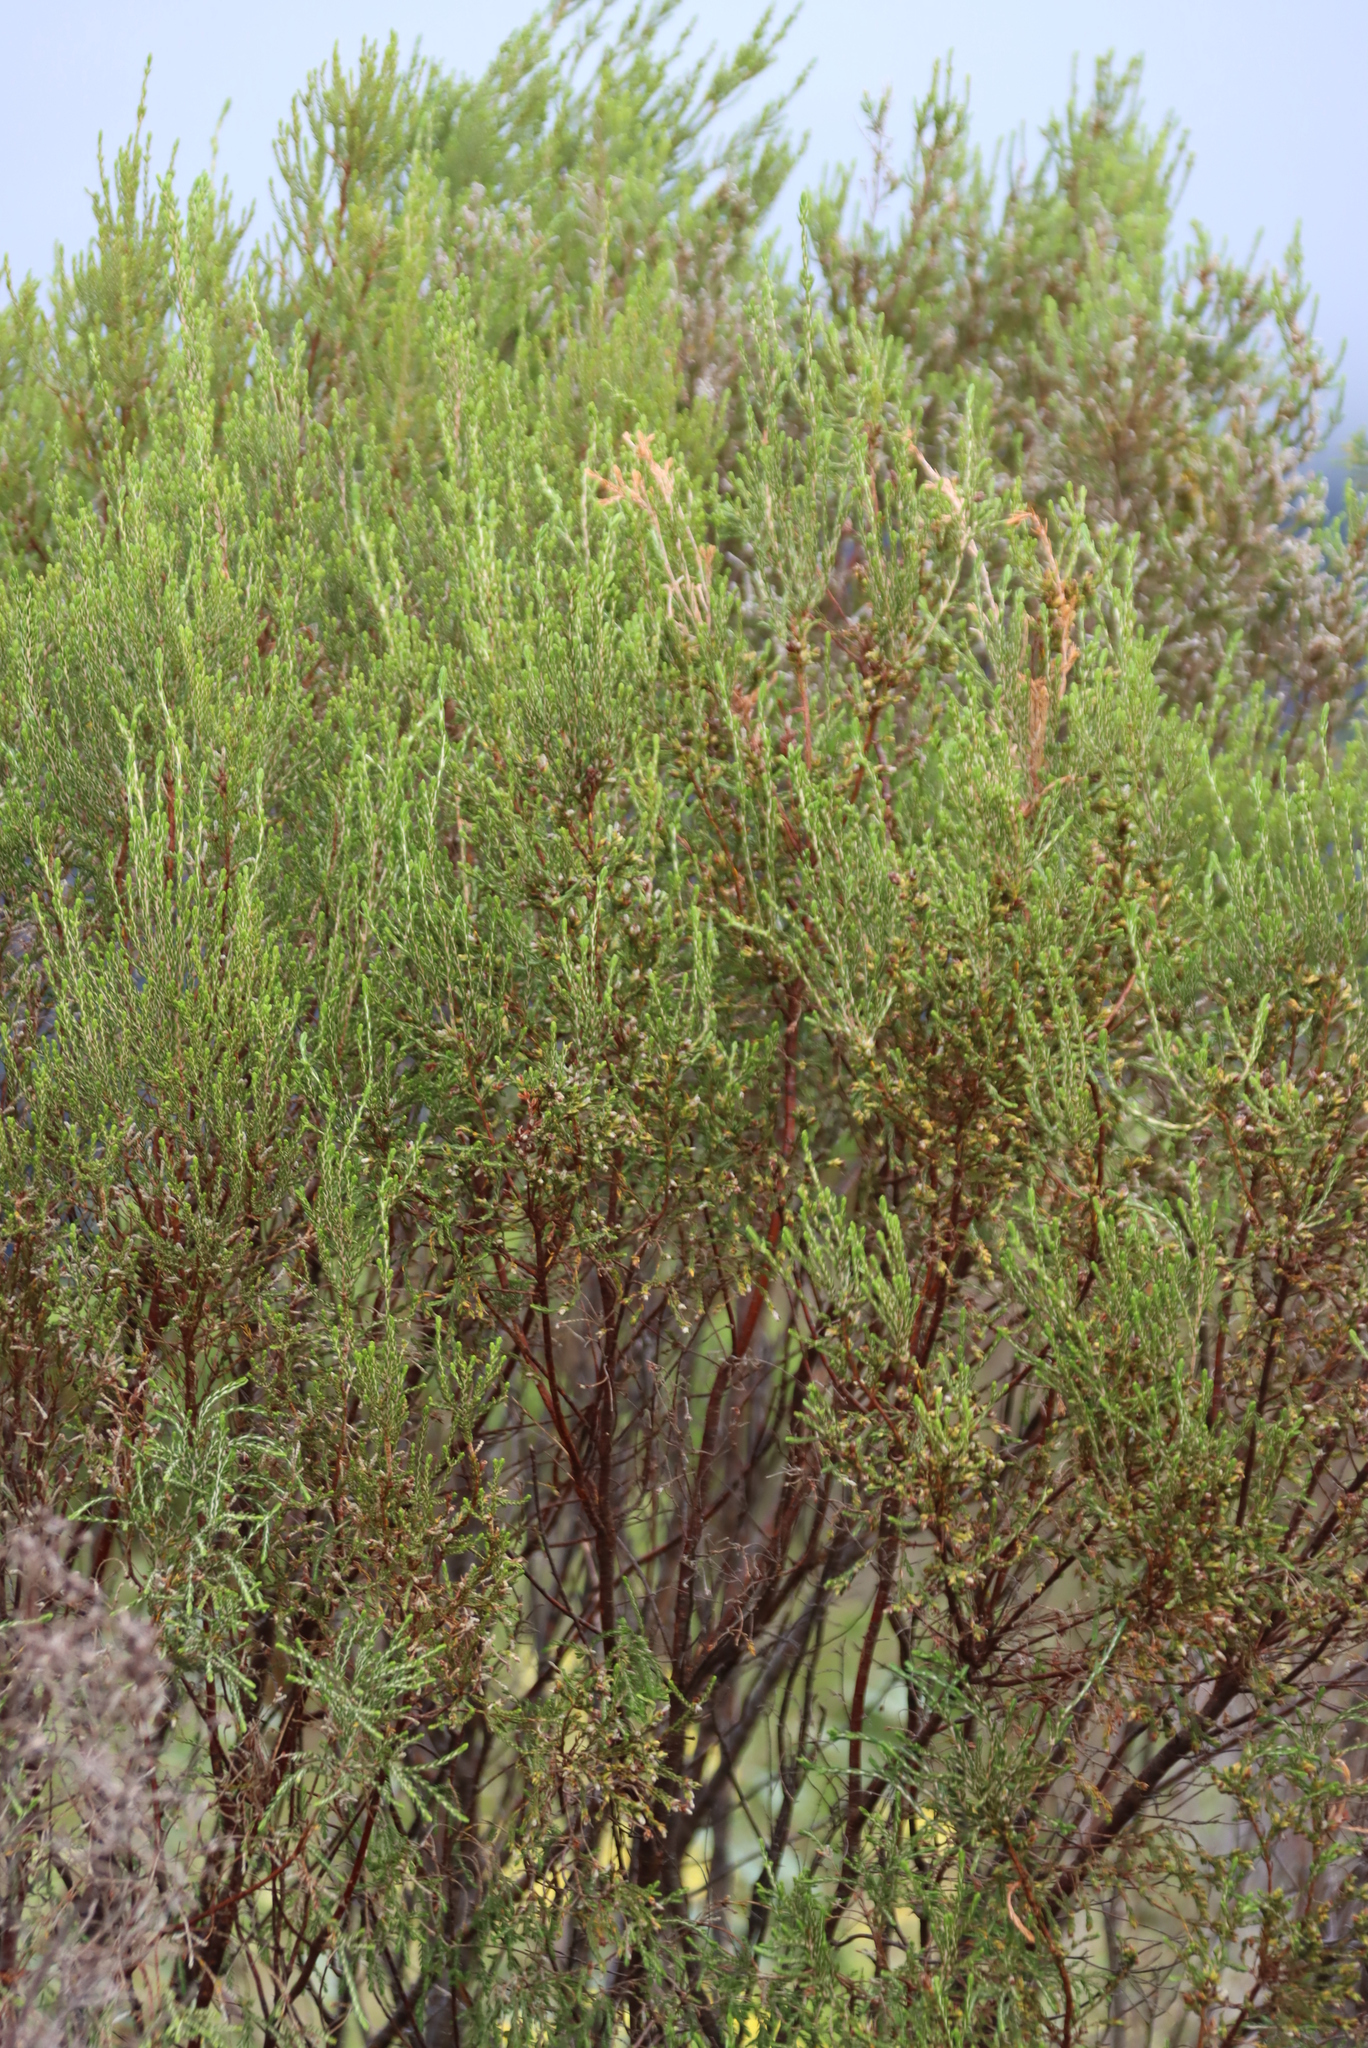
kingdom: Plantae
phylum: Tracheophyta
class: Magnoliopsida
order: Malvales
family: Thymelaeaceae
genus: Passerina
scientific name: Passerina corymbosa
